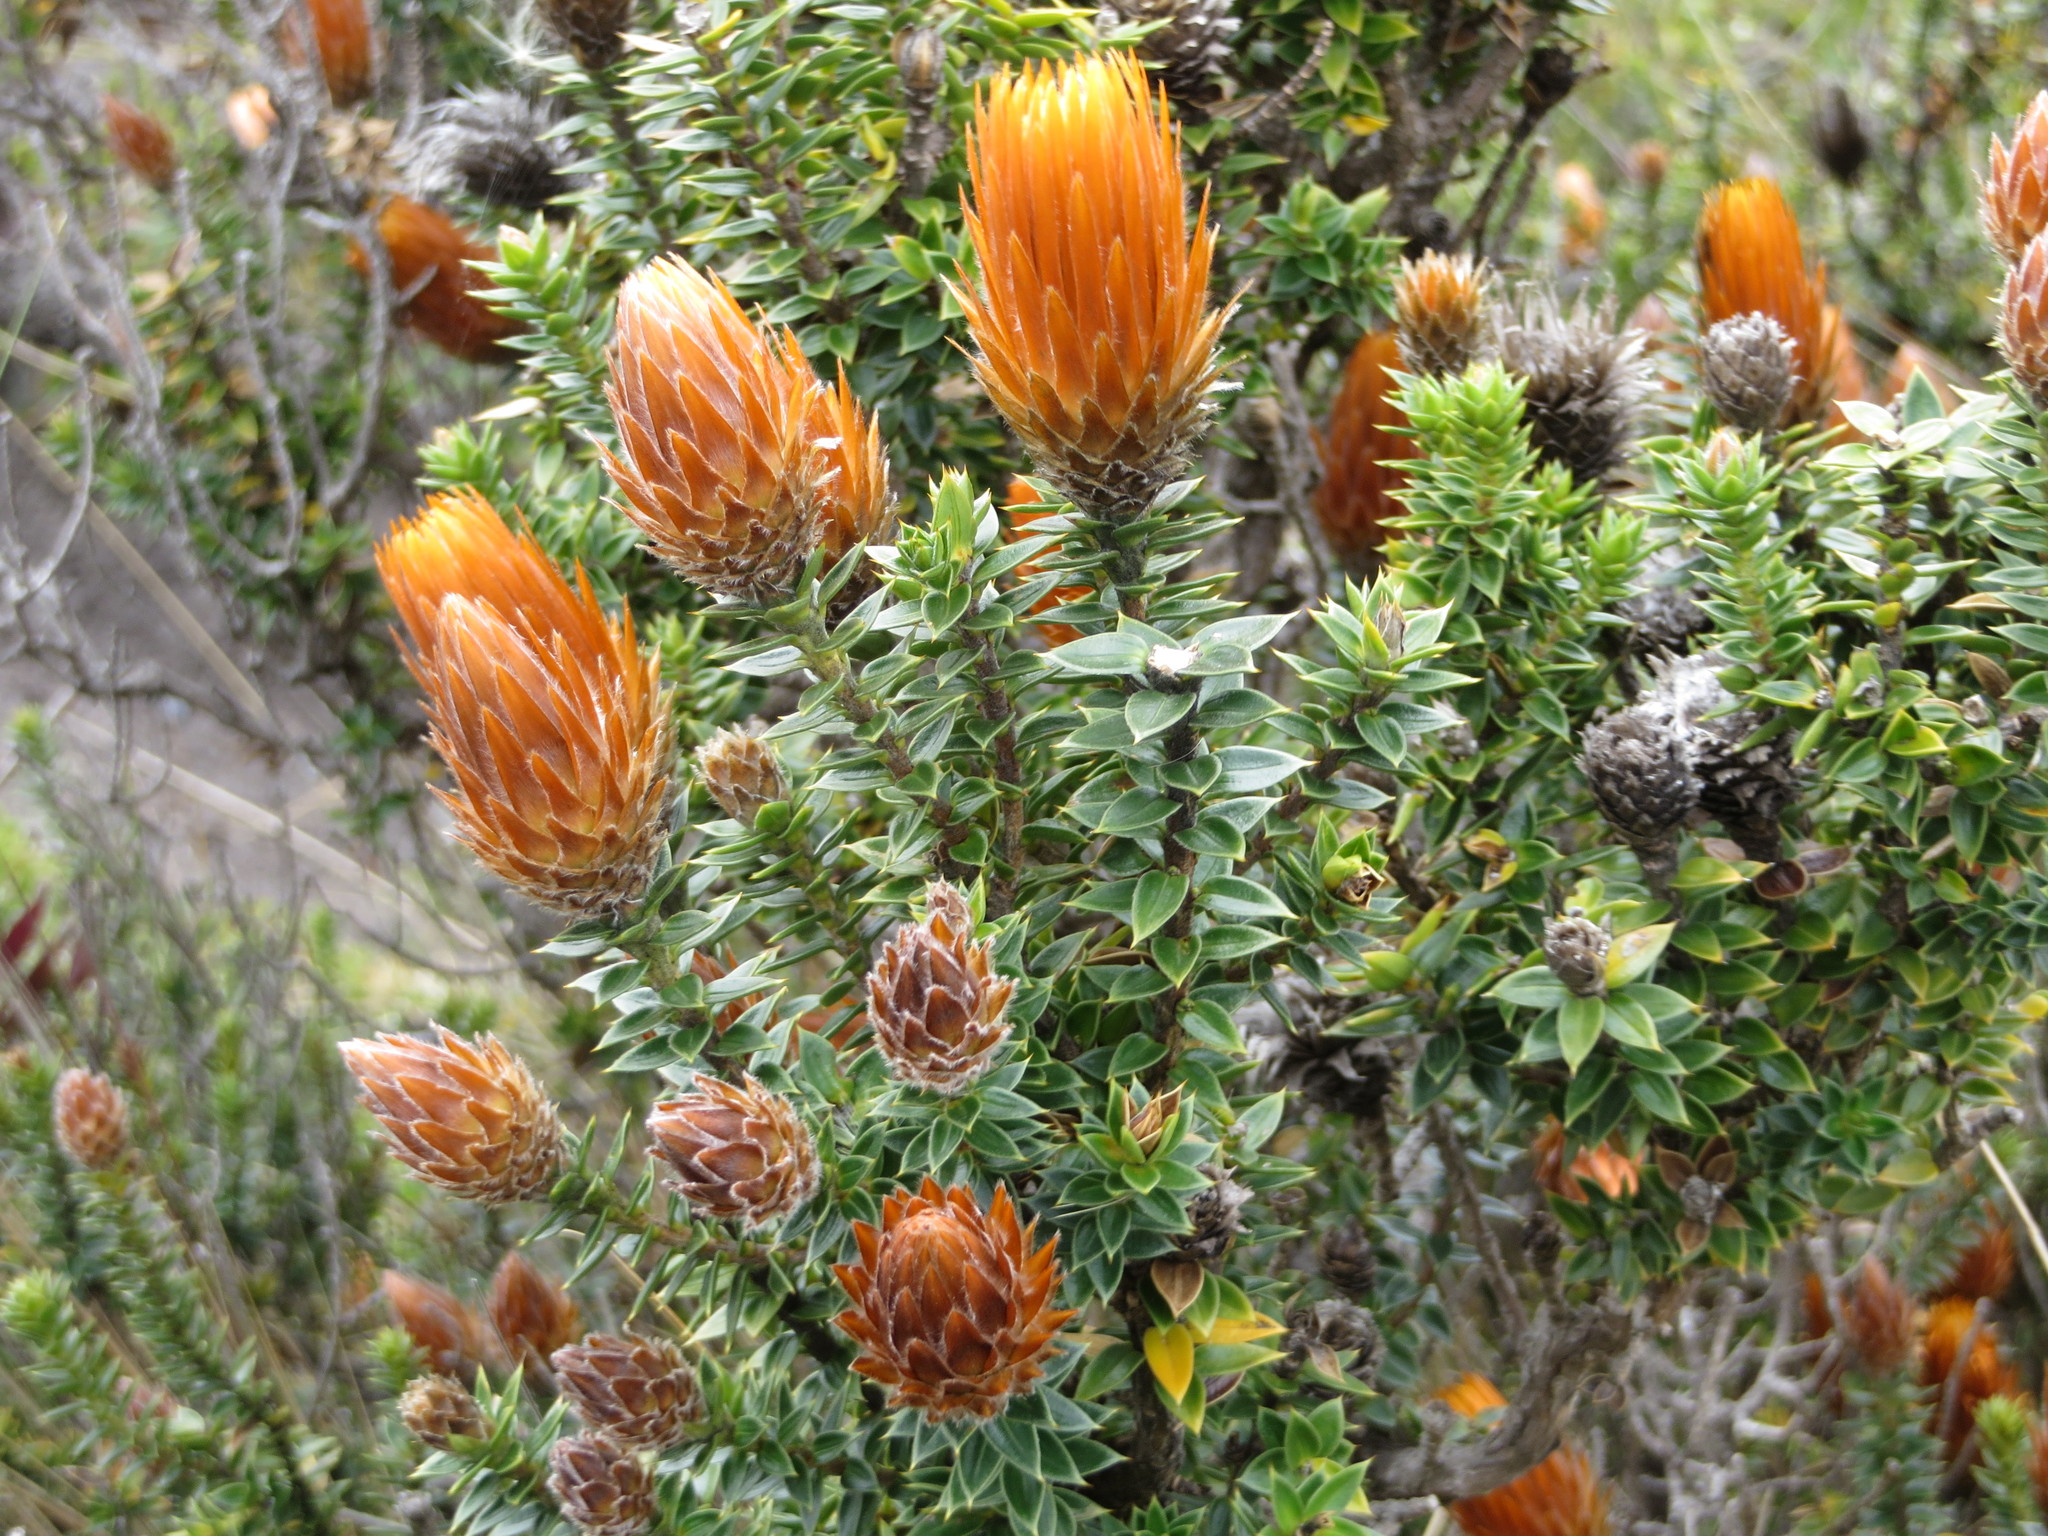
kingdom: Plantae
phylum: Tracheophyta
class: Magnoliopsida
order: Asterales
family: Asteraceae
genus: Chuquiraga
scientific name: Chuquiraga jussieui
